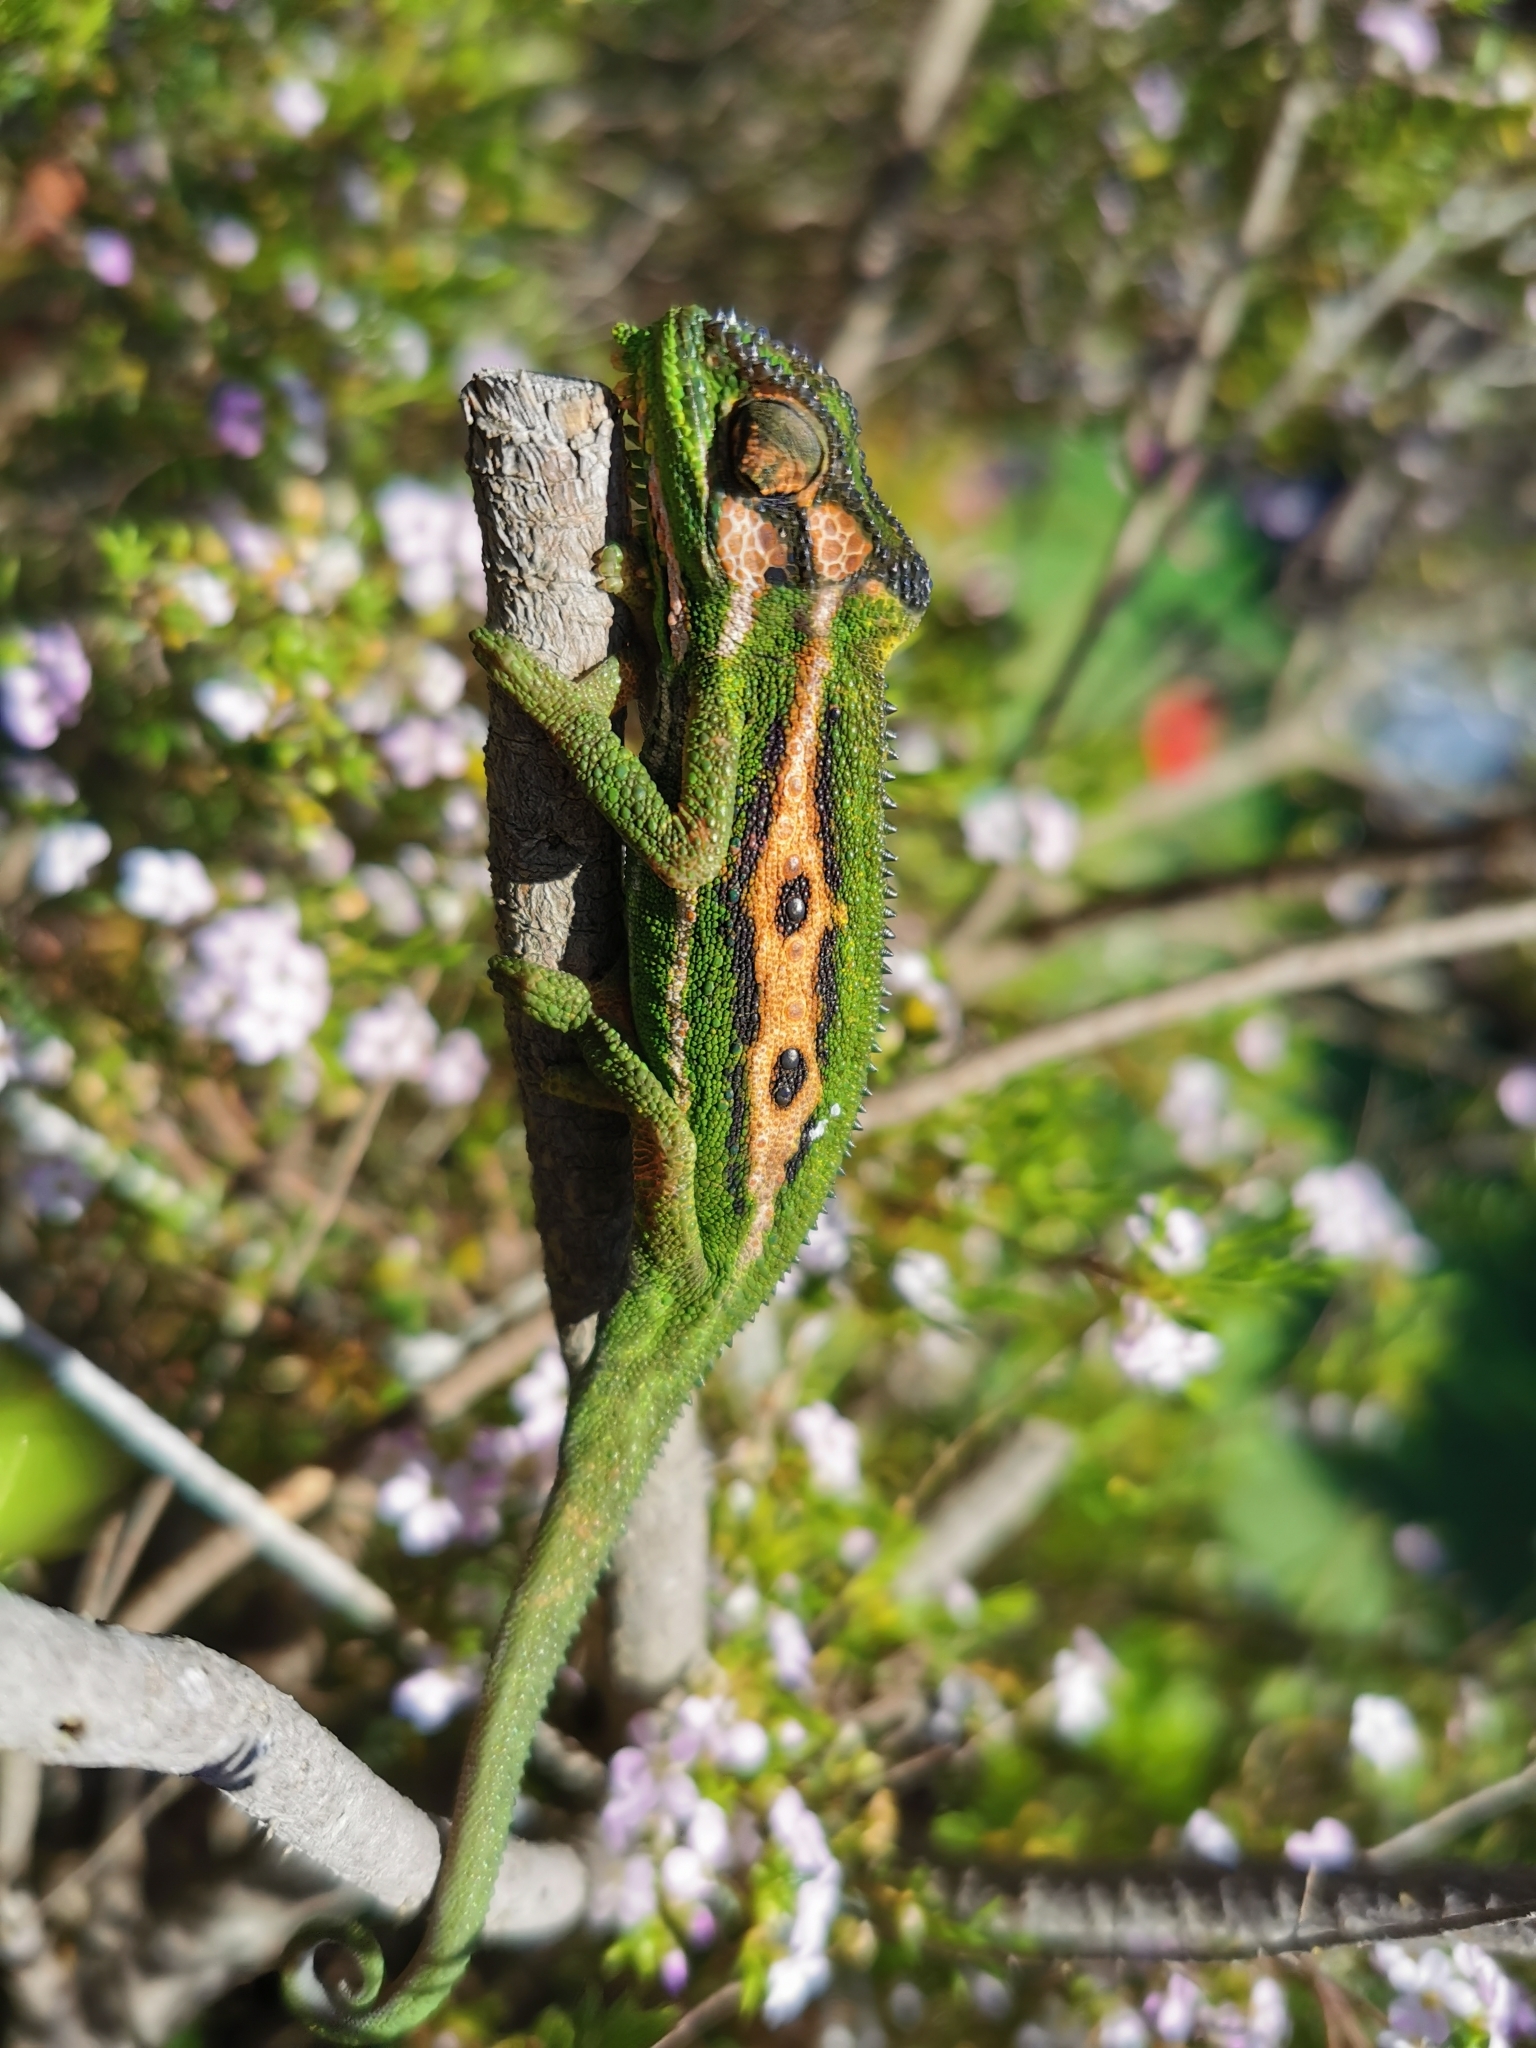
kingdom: Animalia
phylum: Chordata
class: Squamata
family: Chamaeleonidae
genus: Bradypodion
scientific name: Bradypodion pumilum
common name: Cape dwarf chameleon
